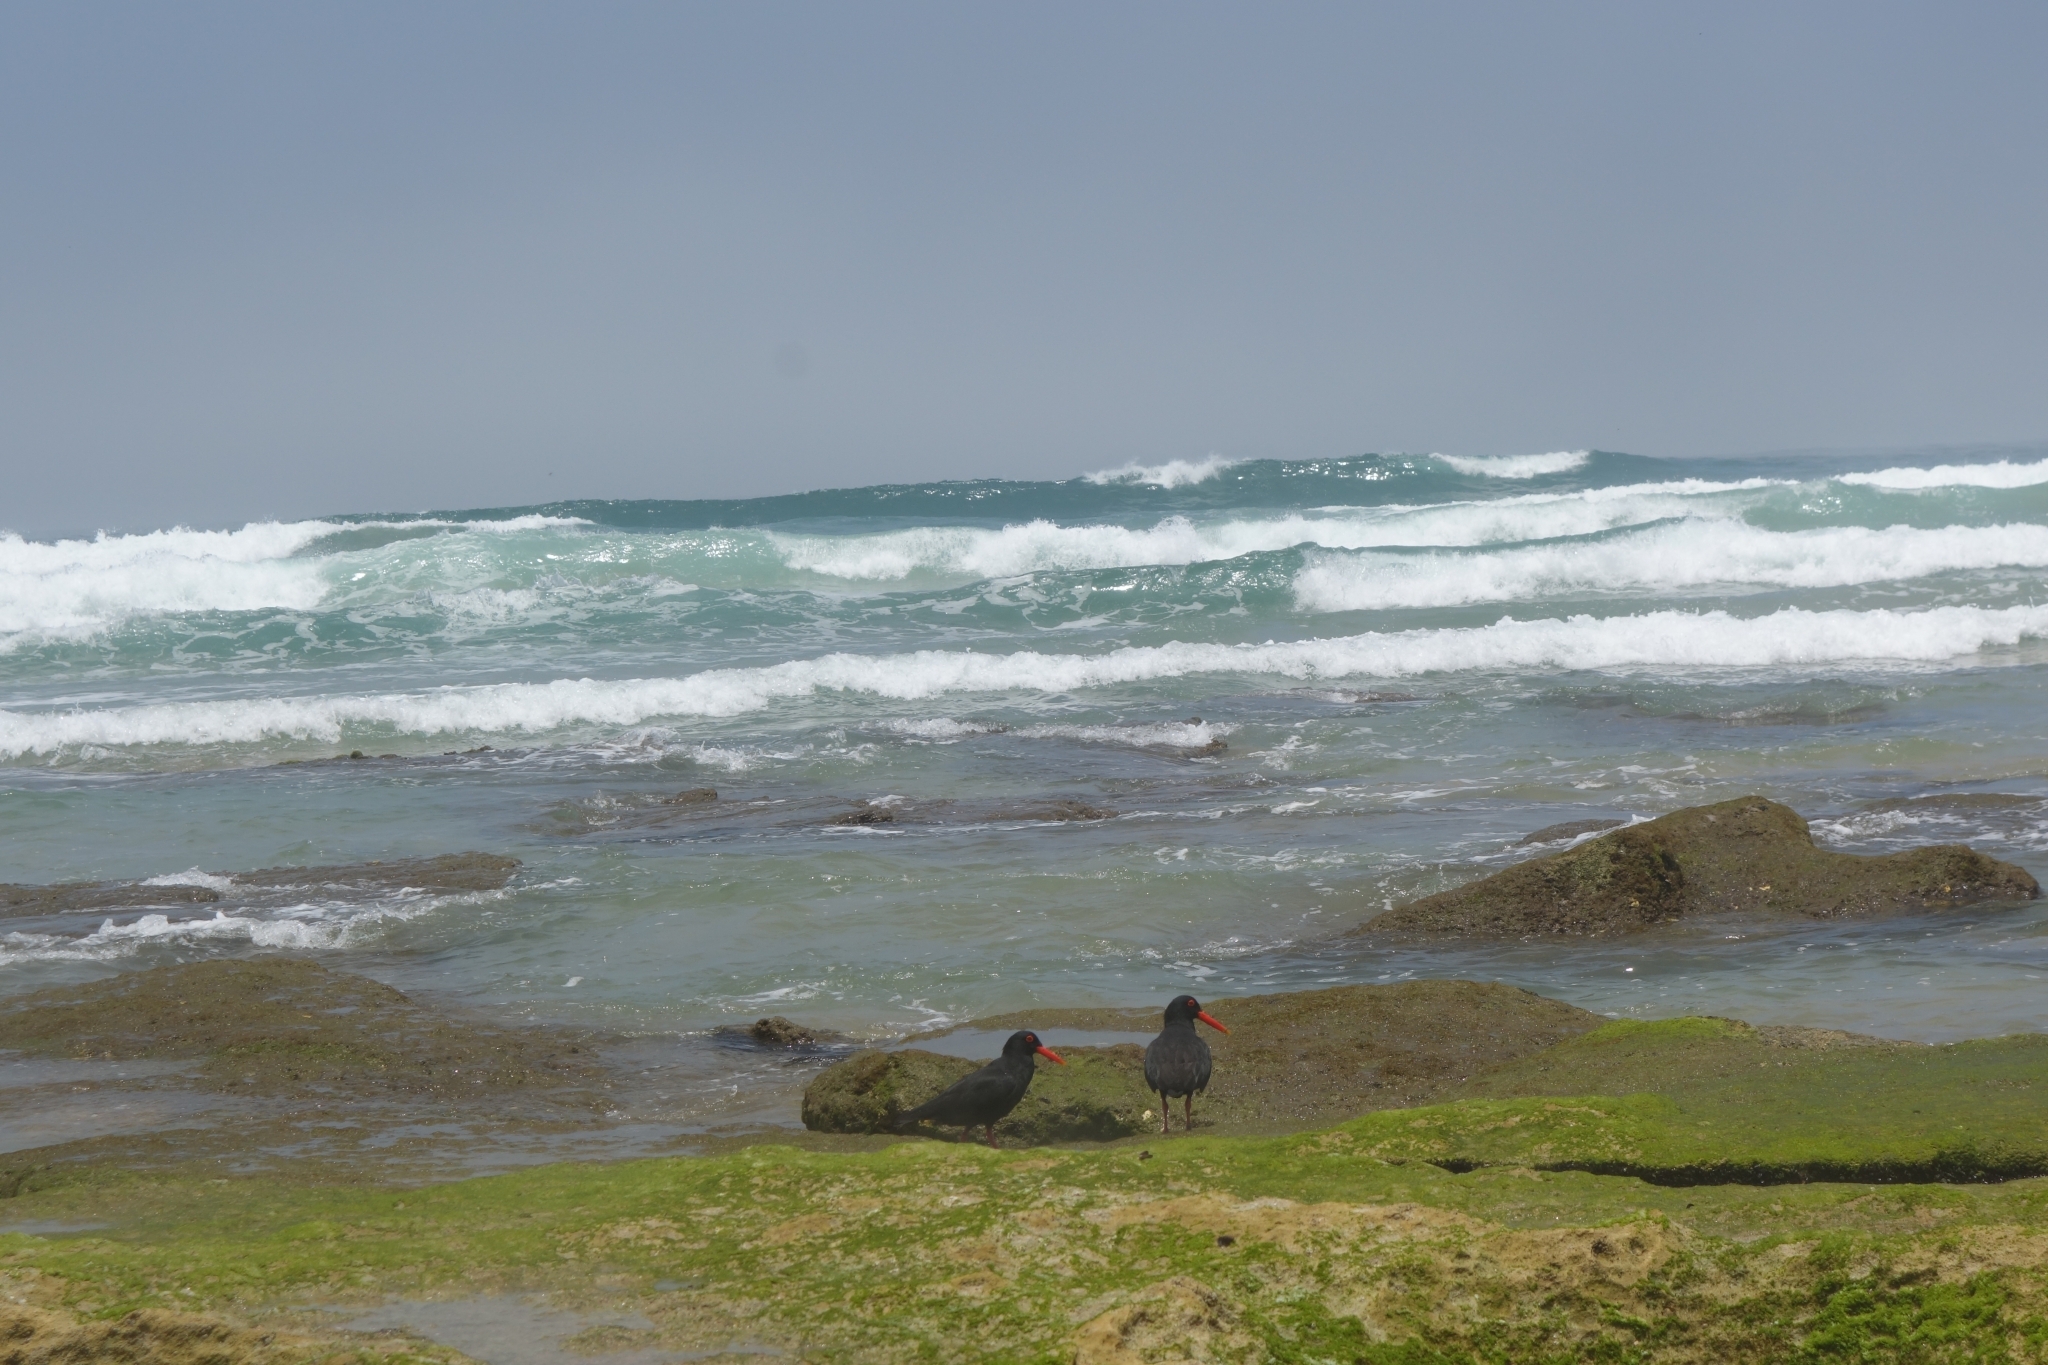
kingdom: Animalia
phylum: Chordata
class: Aves
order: Charadriiformes
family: Haematopodidae
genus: Haematopus
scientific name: Haematopus moquini
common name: African oystercatcher
